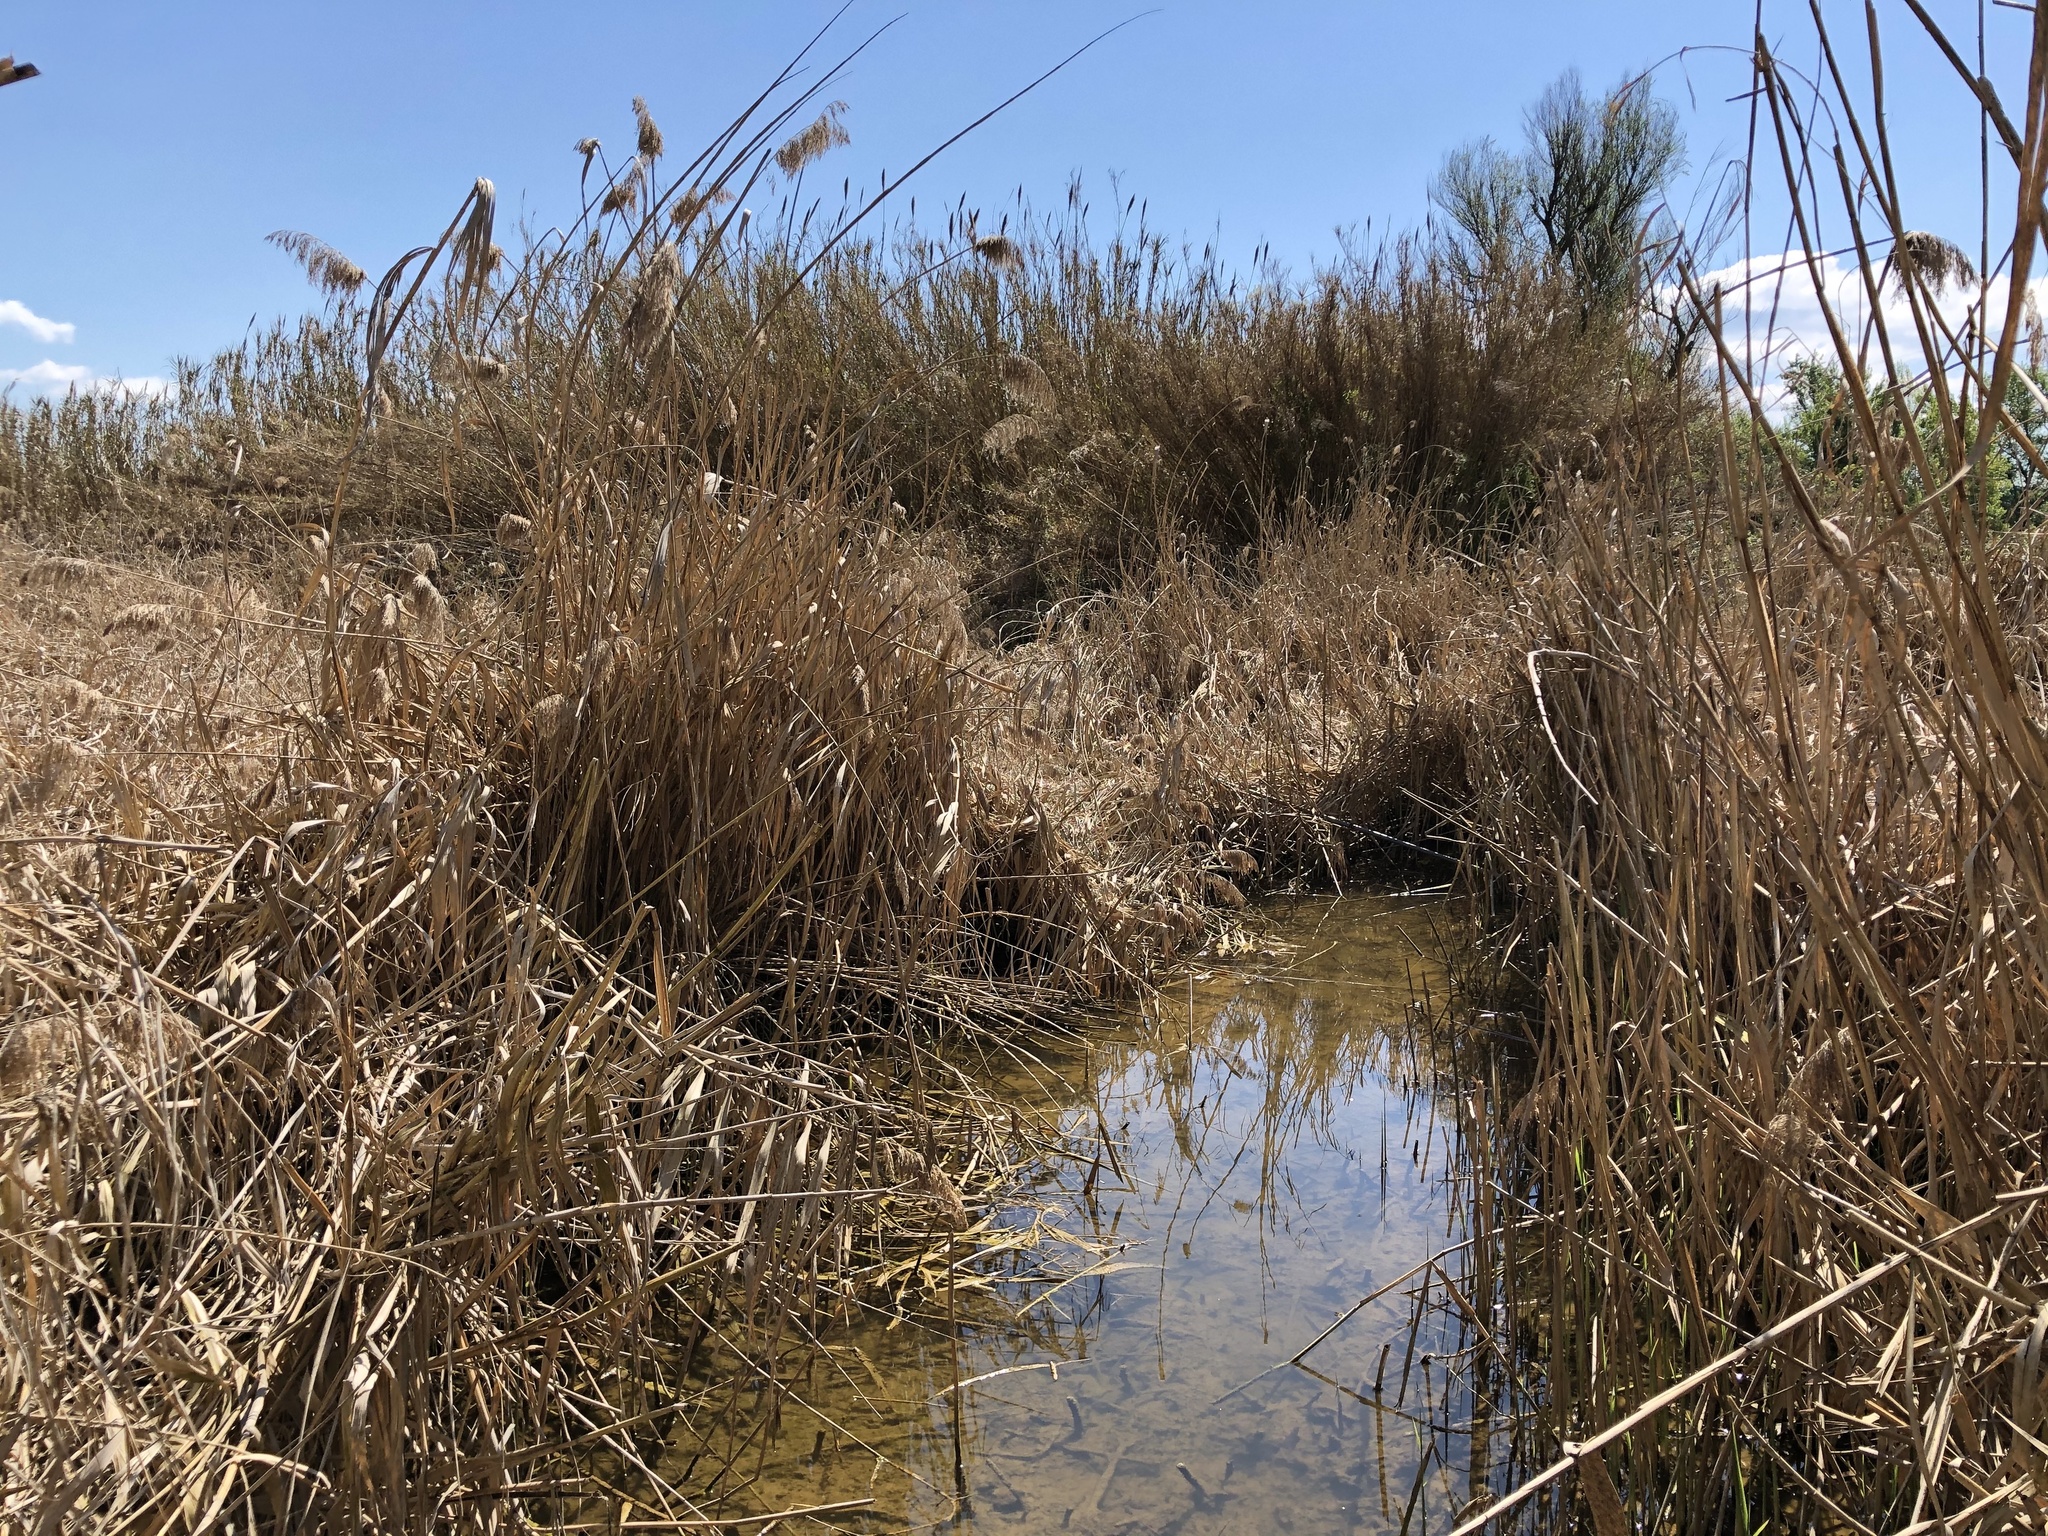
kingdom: Plantae
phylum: Tracheophyta
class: Liliopsida
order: Poales
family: Poaceae
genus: Phragmites
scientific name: Phragmites australis
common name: Common reed
